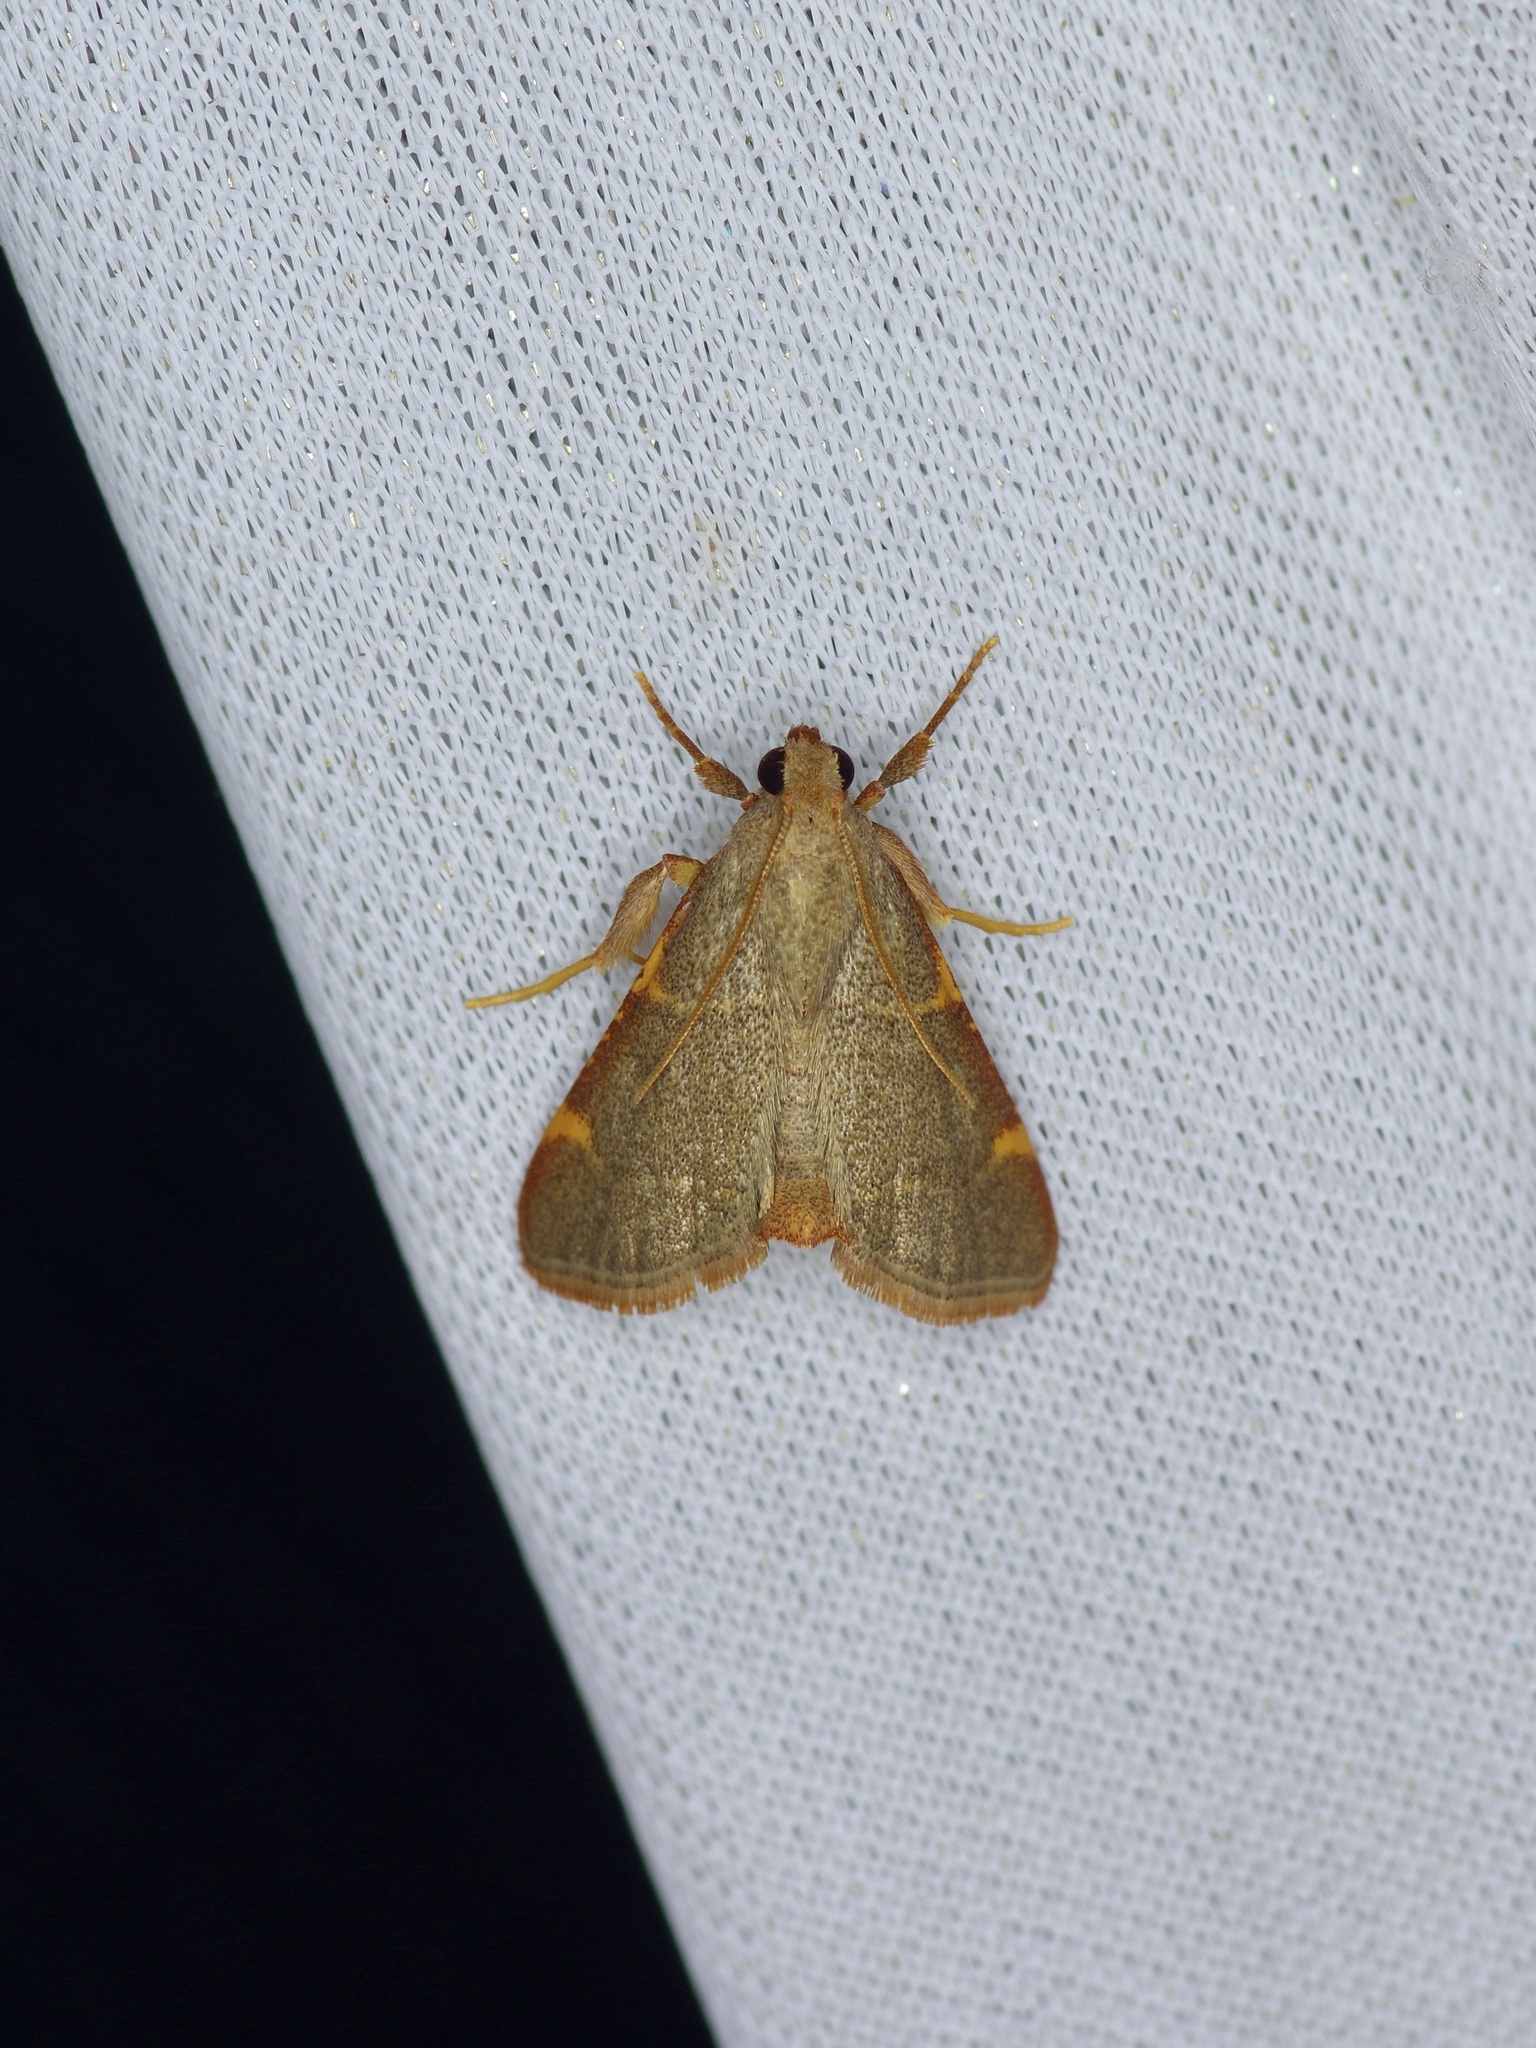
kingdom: Animalia
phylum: Arthropoda
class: Insecta
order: Lepidoptera
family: Pyralidae
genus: Hypsopygia
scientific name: Hypsopygia binodulalis
